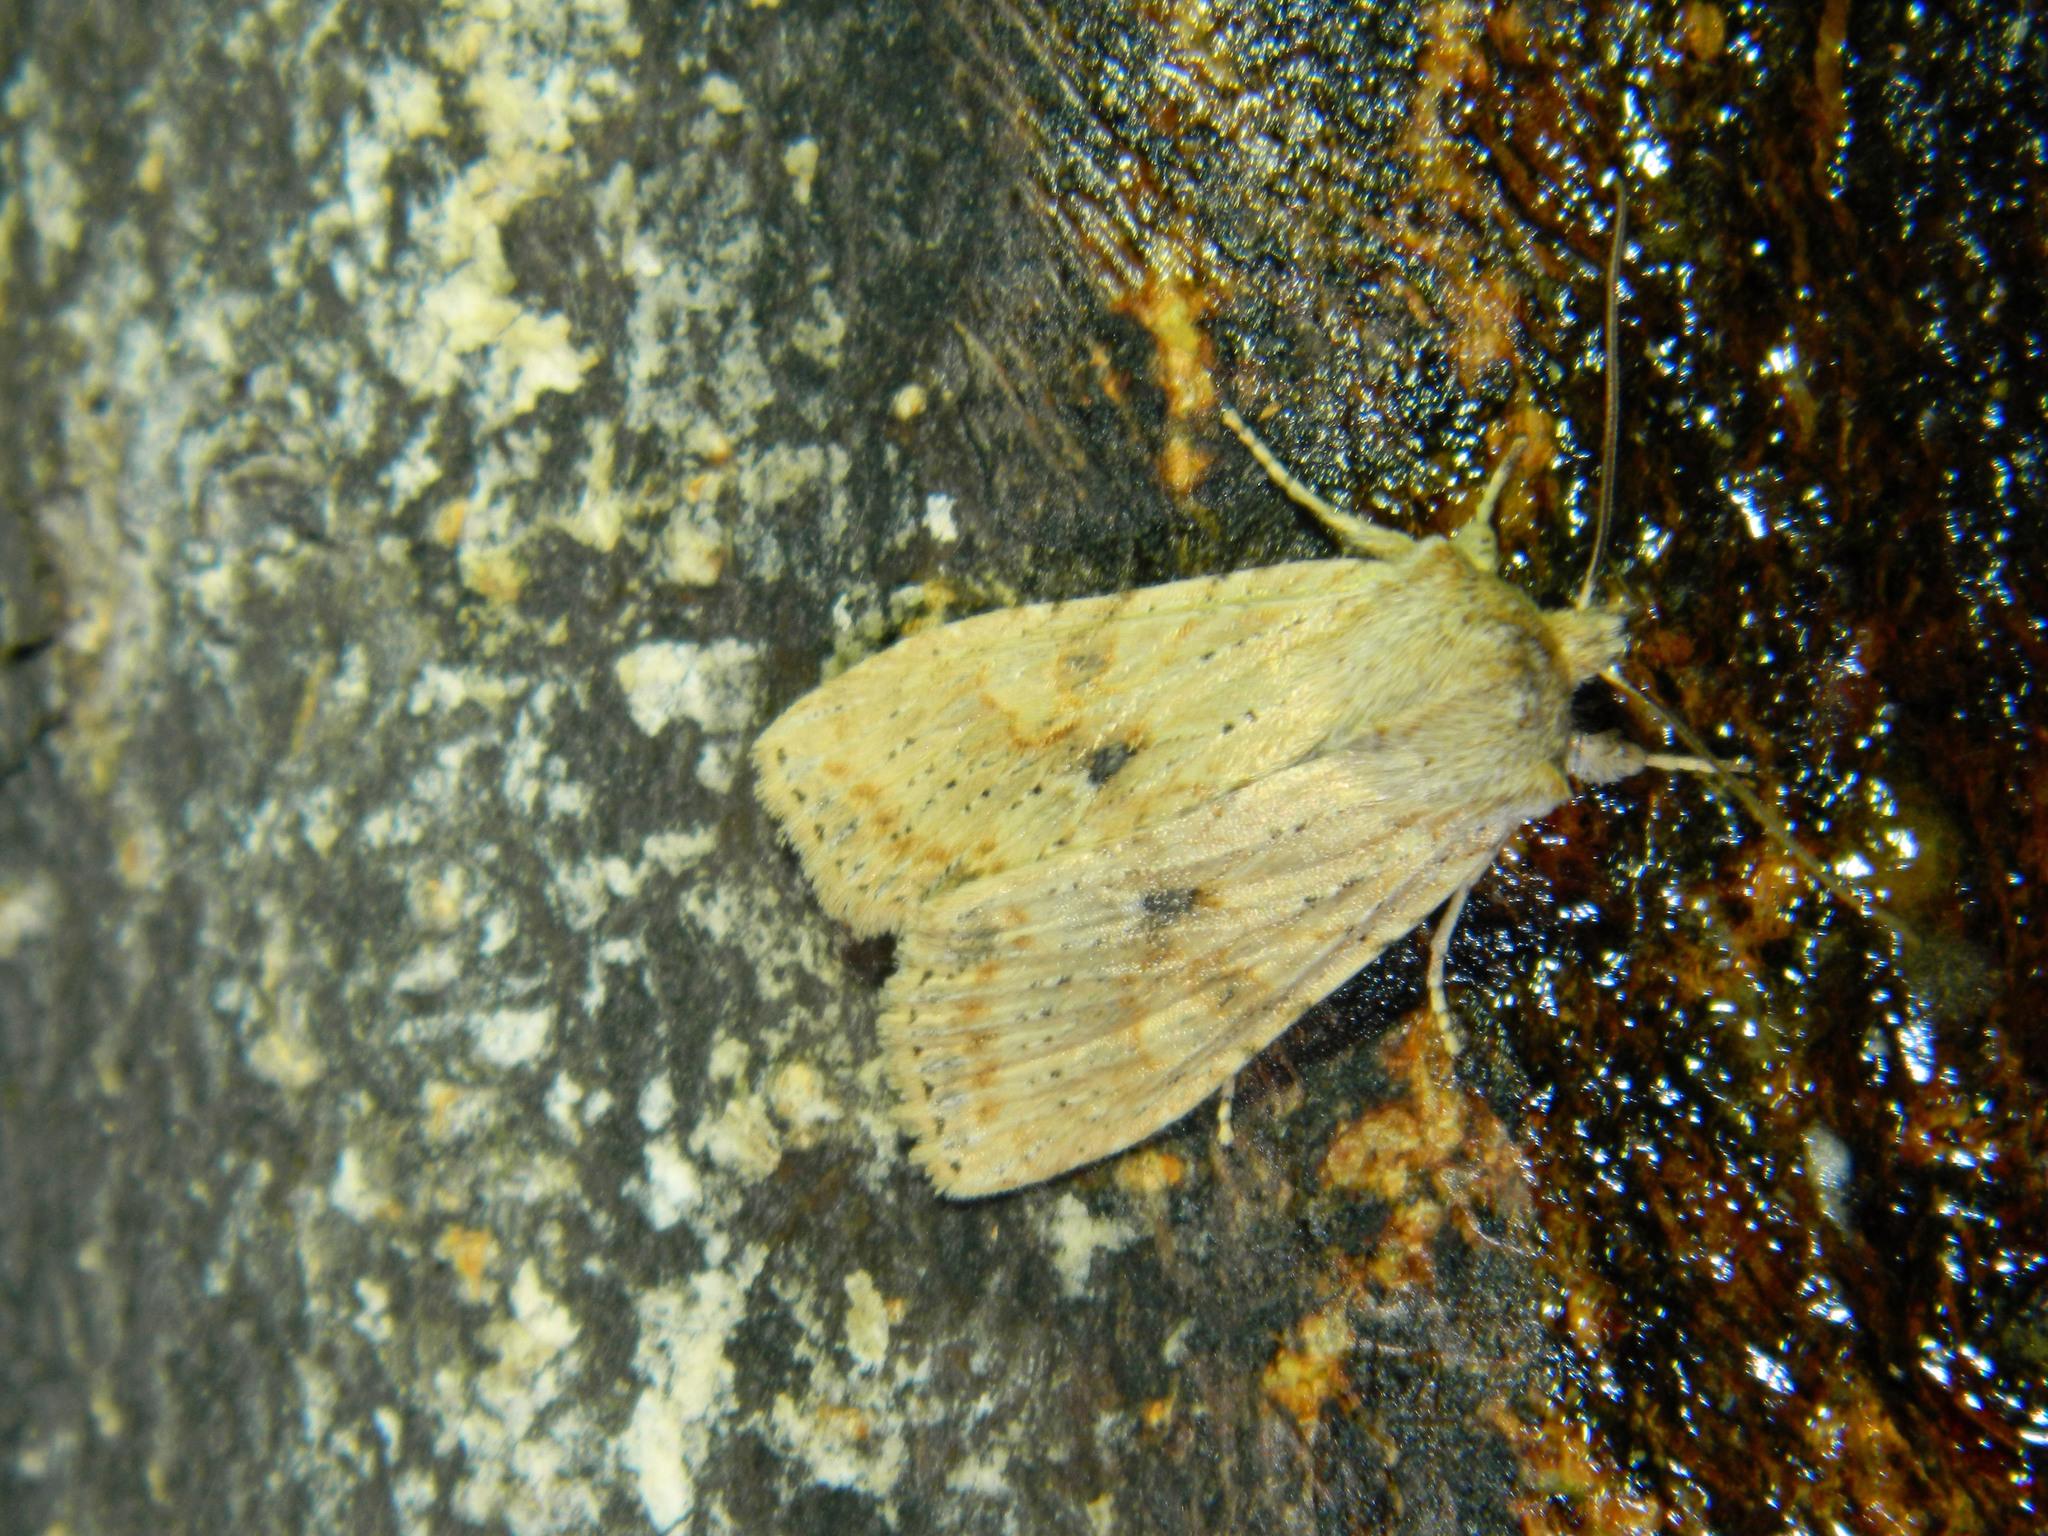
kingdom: Animalia
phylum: Arthropoda
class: Insecta
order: Lepidoptera
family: Noctuidae
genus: Lithophane
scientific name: Lithophane innominata
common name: Nameless pinion moth
